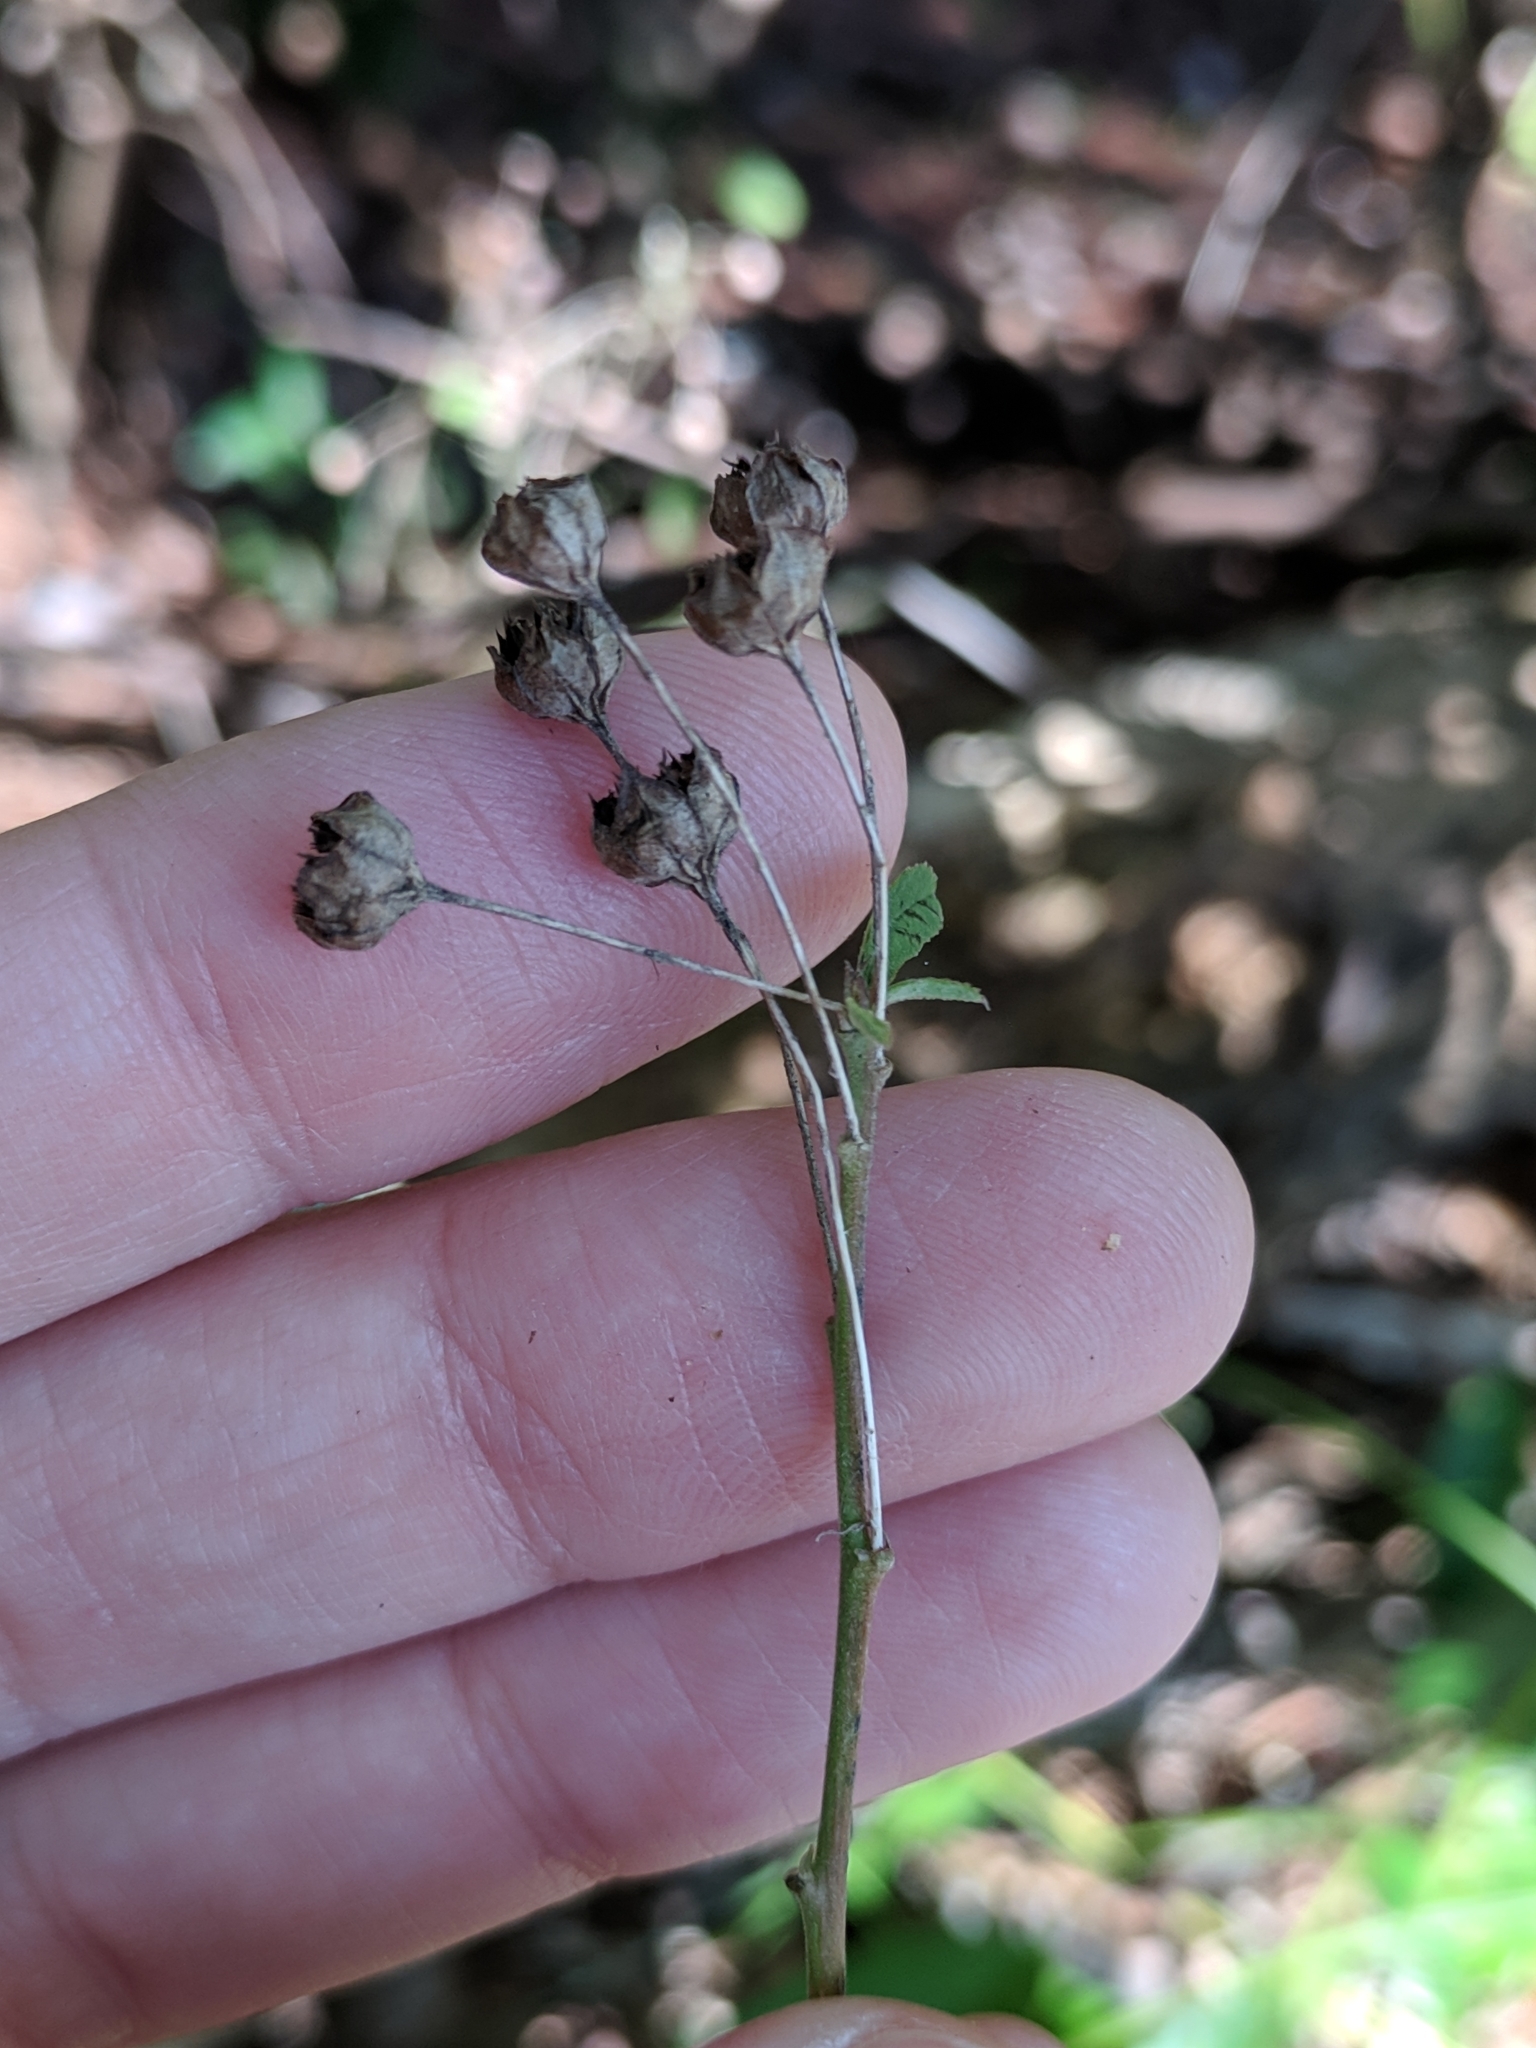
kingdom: Plantae
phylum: Tracheophyta
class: Magnoliopsida
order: Malvales
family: Malvaceae
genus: Sida
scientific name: Sida rhombifolia
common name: Queensland-hemp
